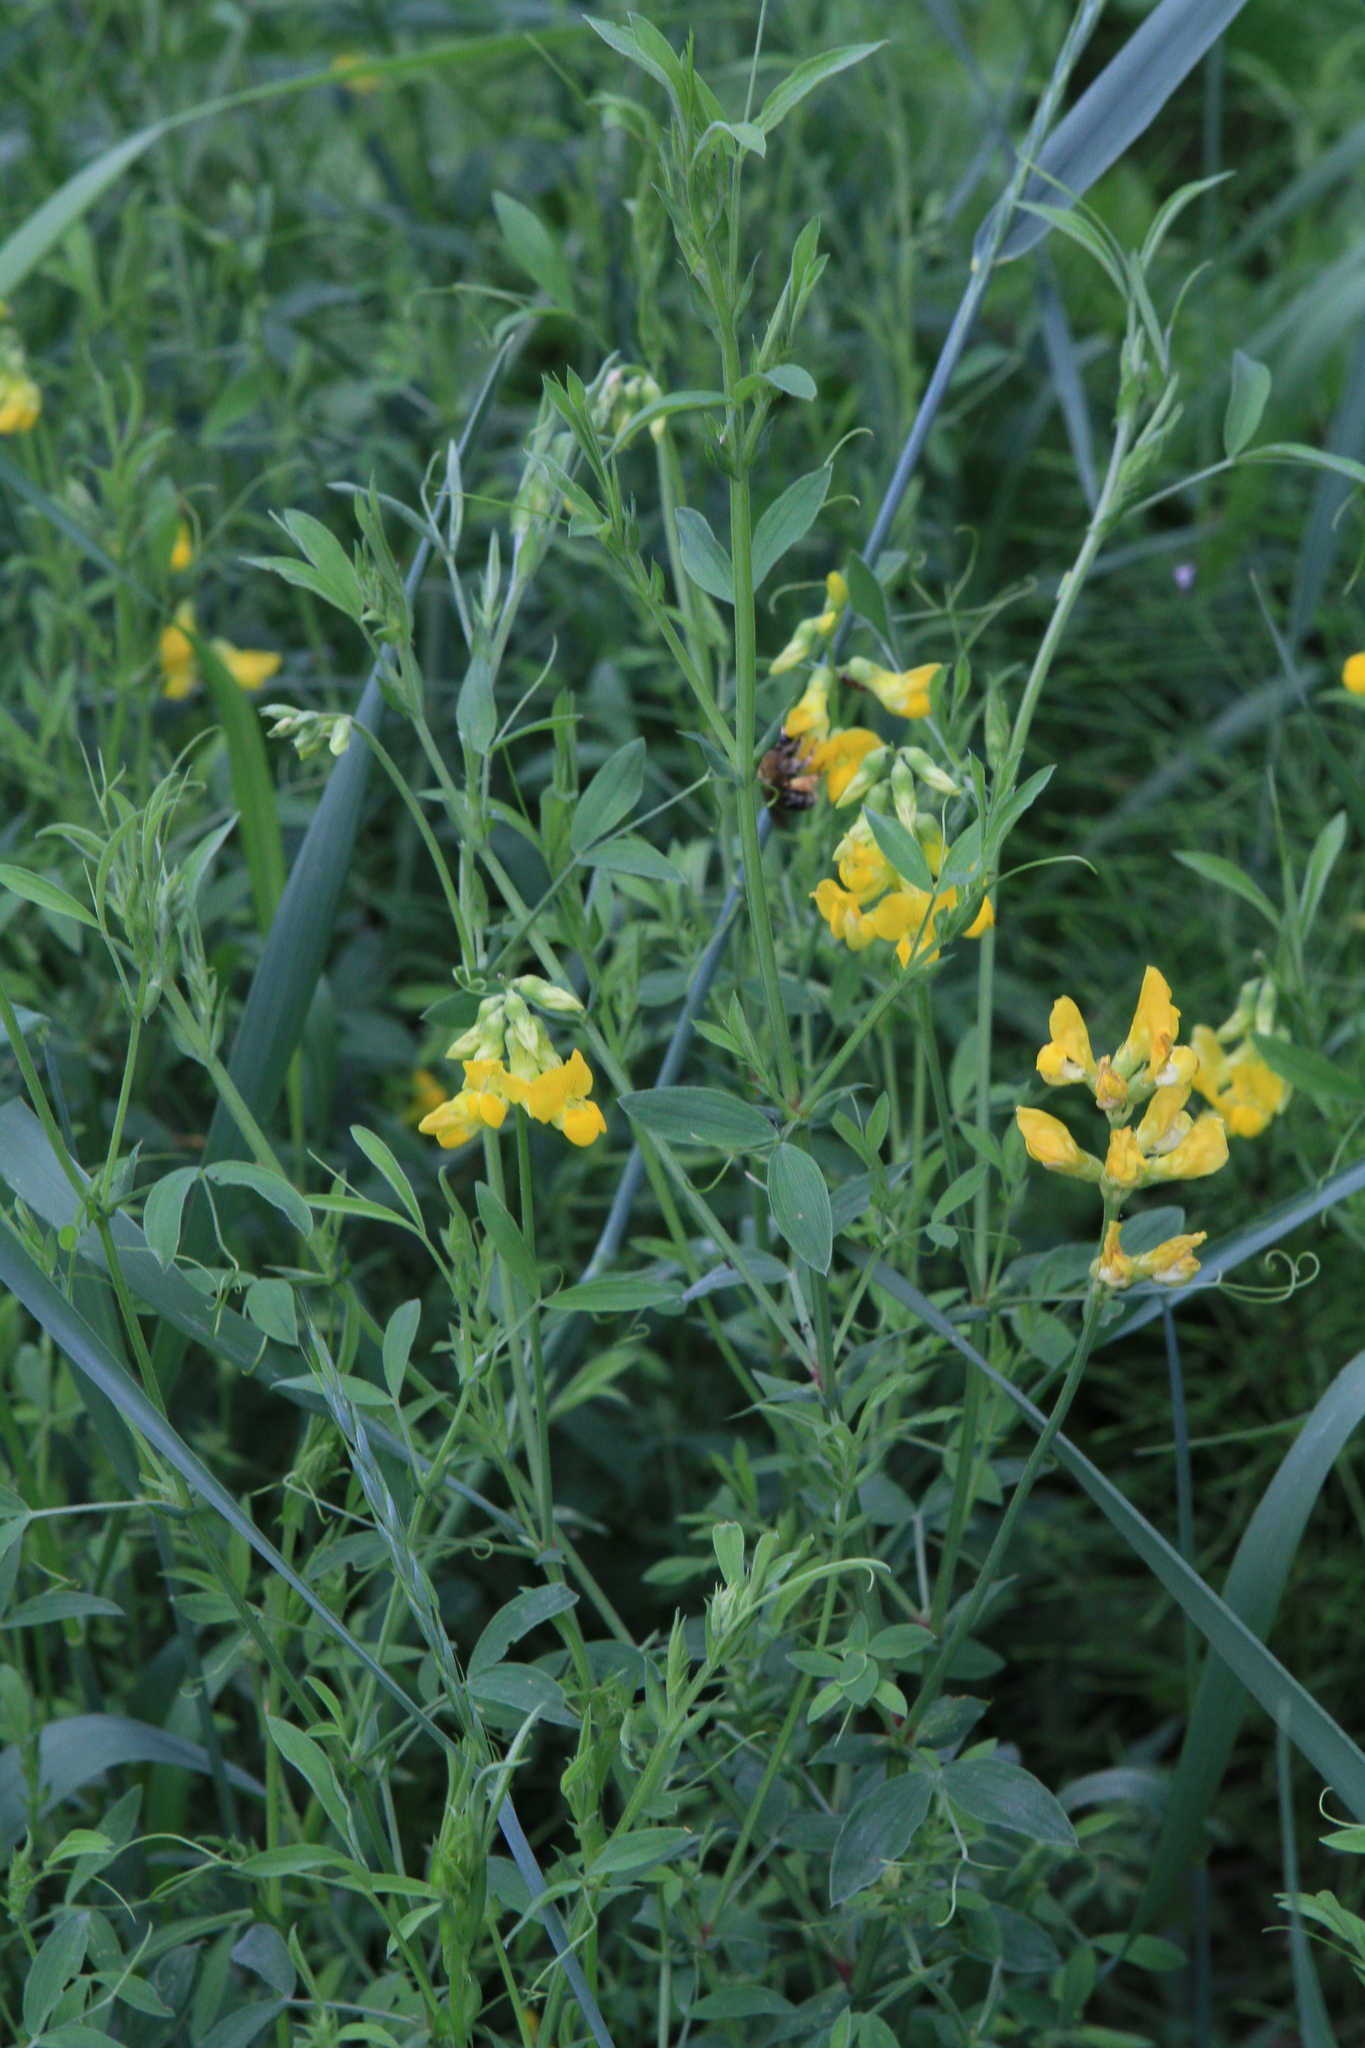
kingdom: Plantae
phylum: Tracheophyta
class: Magnoliopsida
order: Fabales
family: Fabaceae
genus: Lathyrus
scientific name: Lathyrus pratensis
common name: Meadow vetchling
